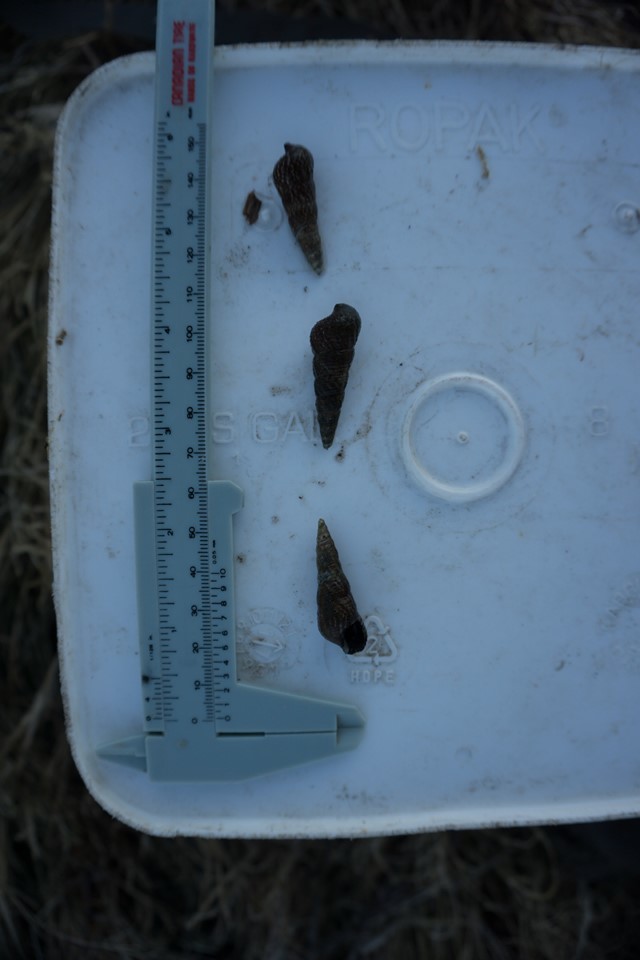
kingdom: Animalia
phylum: Mollusca
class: Gastropoda
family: Batillariidae
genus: Batillaria
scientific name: Batillaria attramentaria
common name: Japanese false cerith
